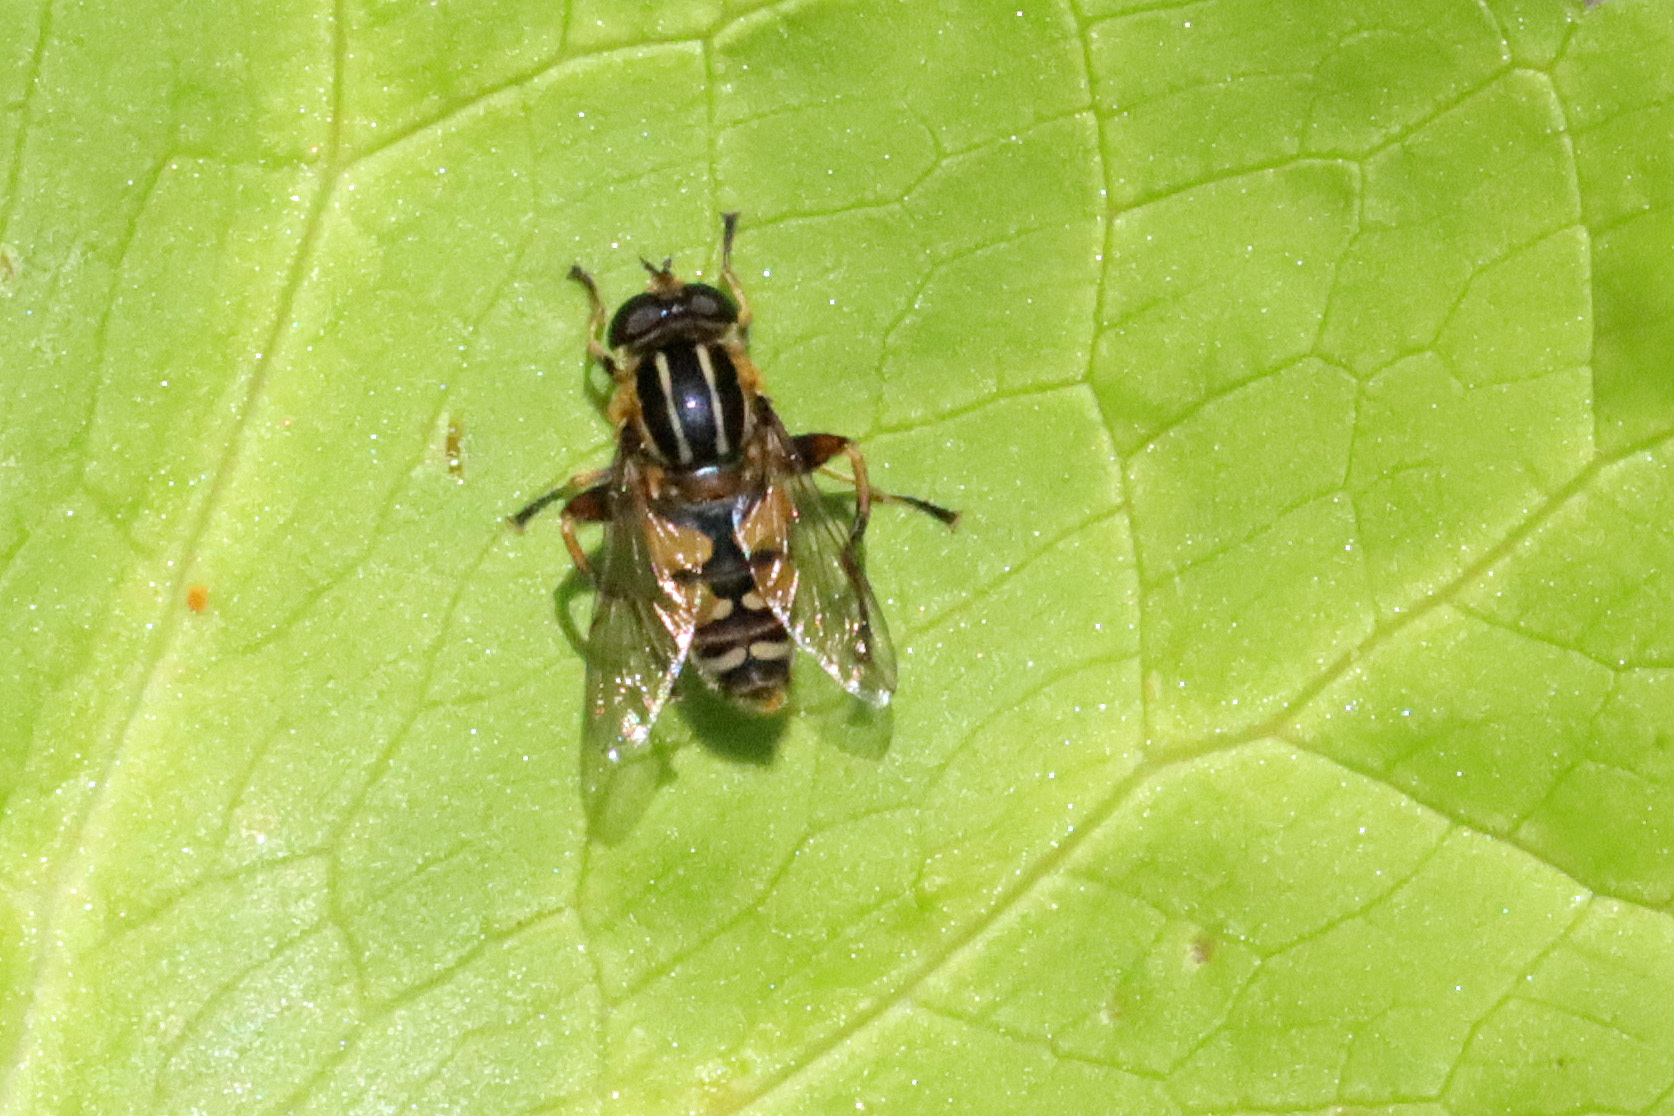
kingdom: Animalia
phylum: Arthropoda
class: Insecta
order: Diptera
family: Syrphidae
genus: Helophilus
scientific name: Helophilus pendulus
